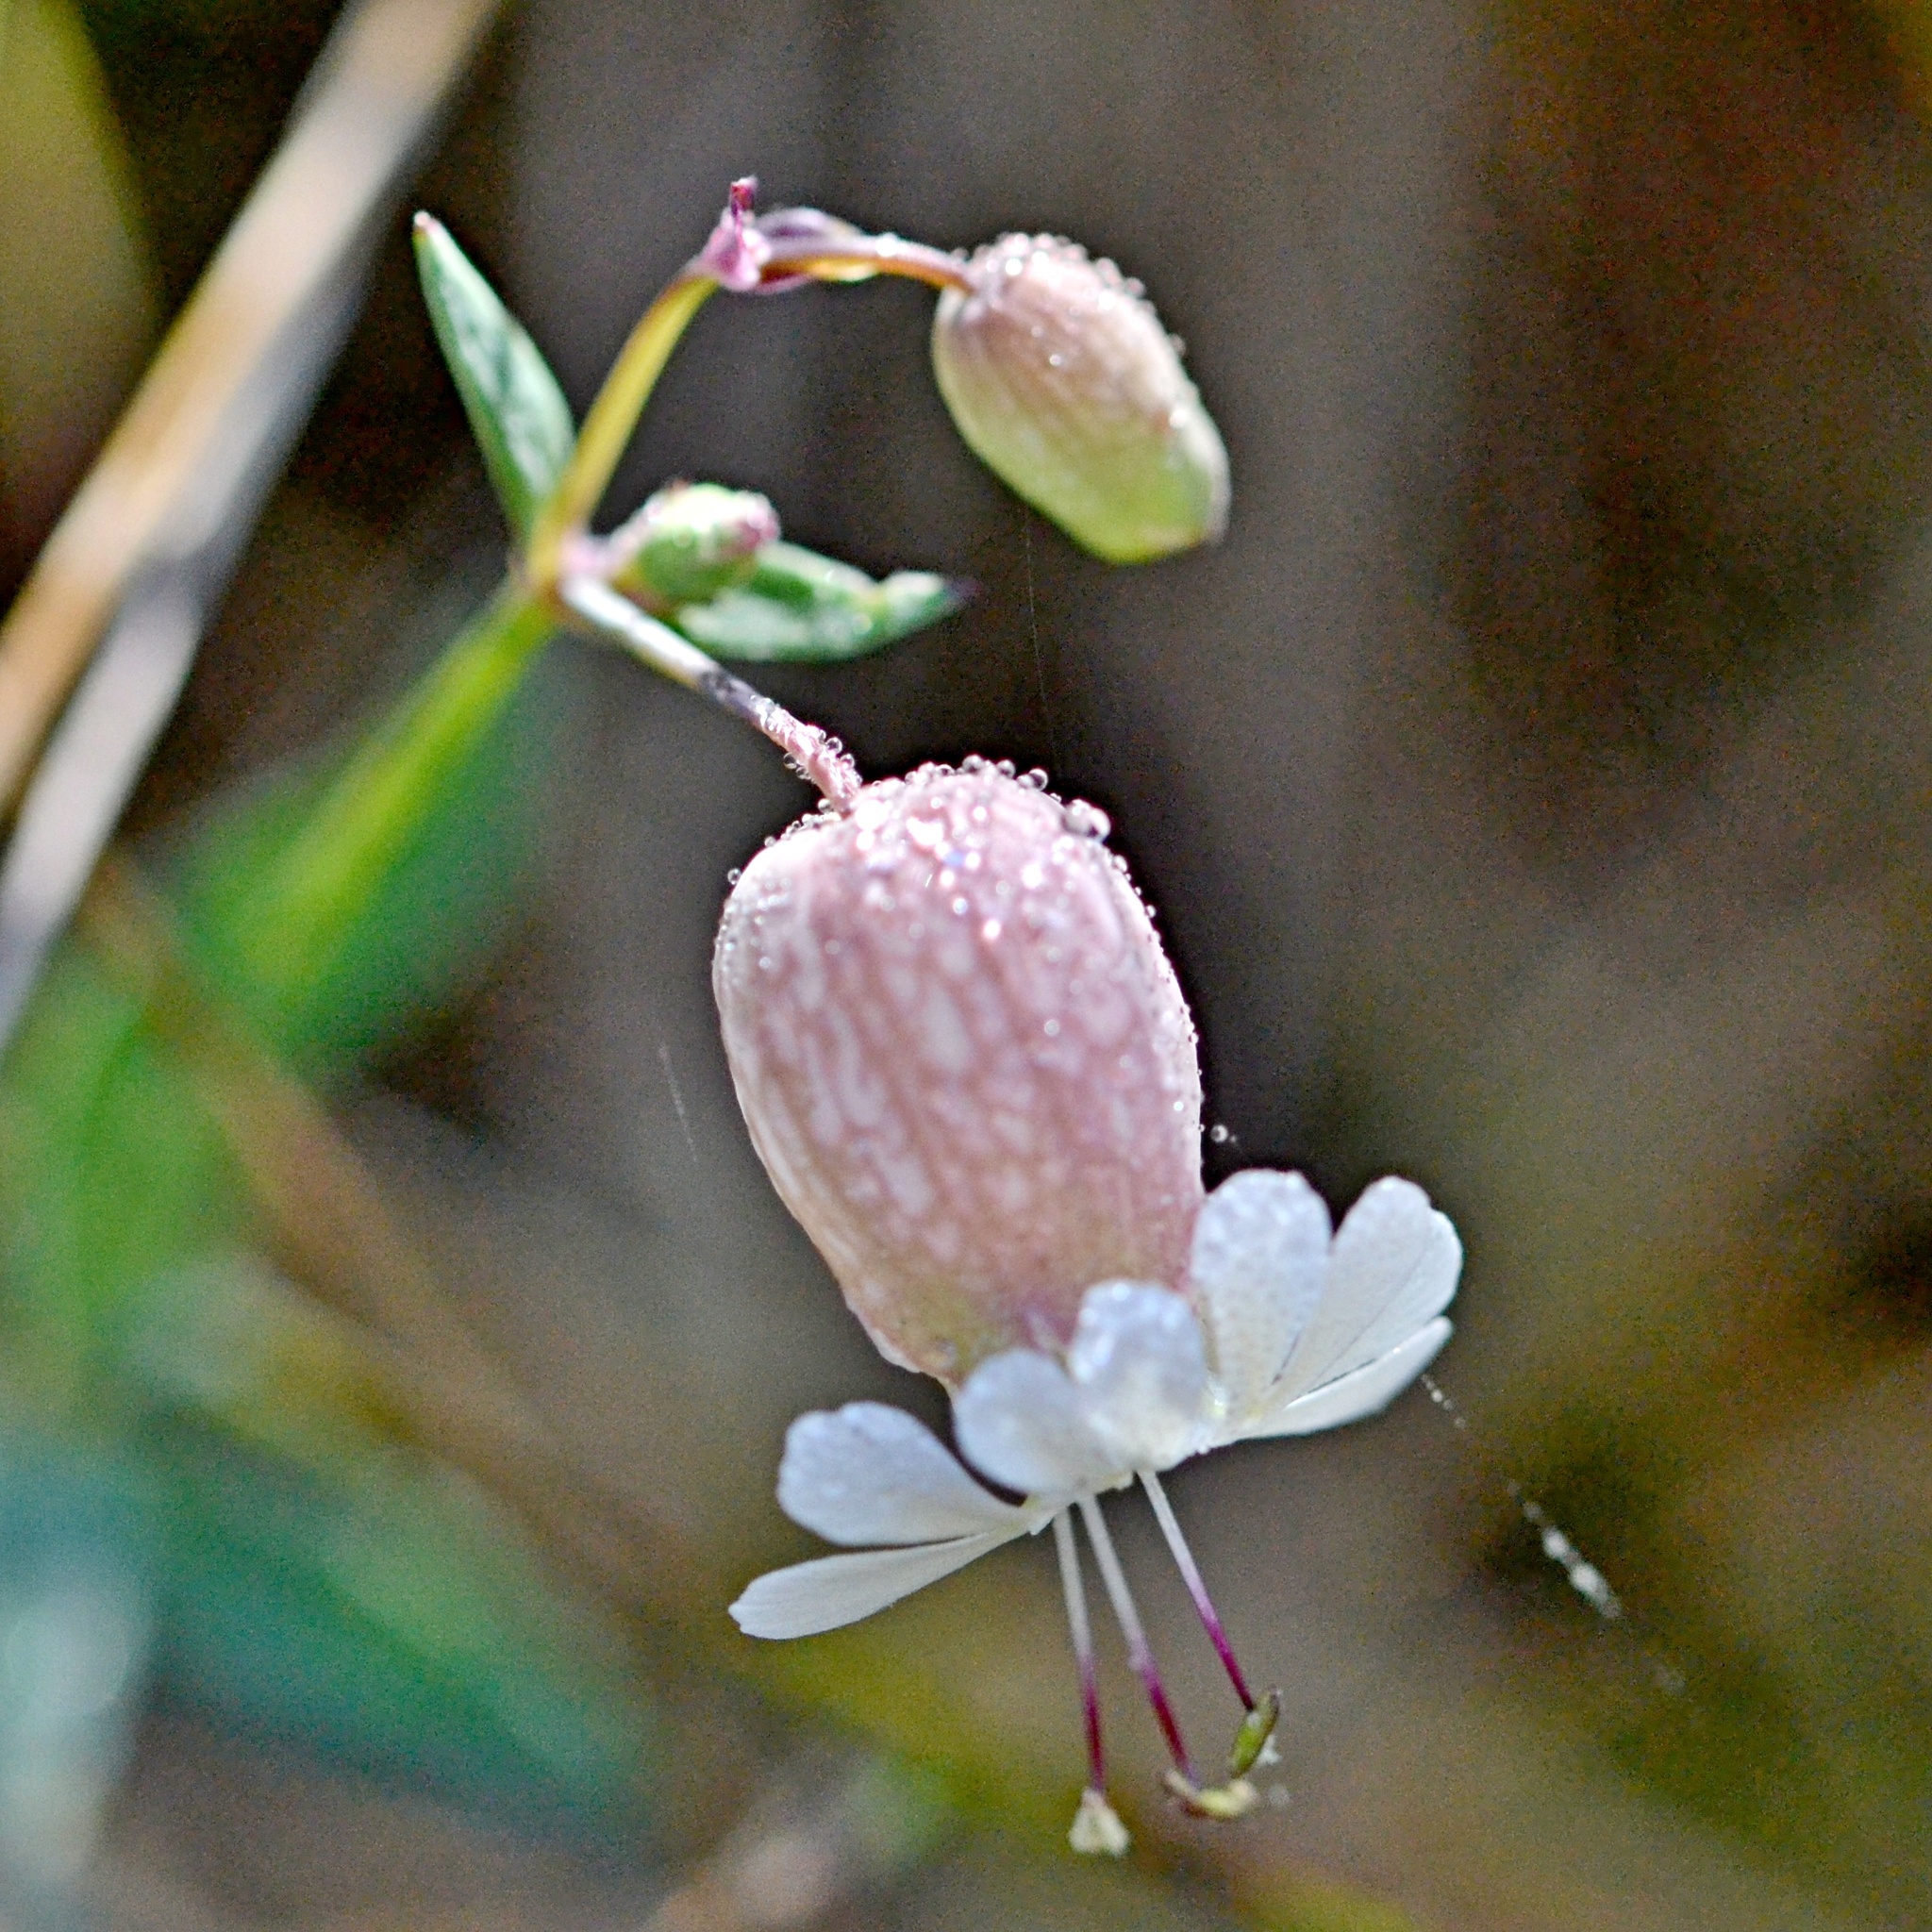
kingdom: Plantae
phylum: Tracheophyta
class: Magnoliopsida
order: Caryophyllales
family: Caryophyllaceae
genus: Silene
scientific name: Silene vulgaris
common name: Bladder campion
